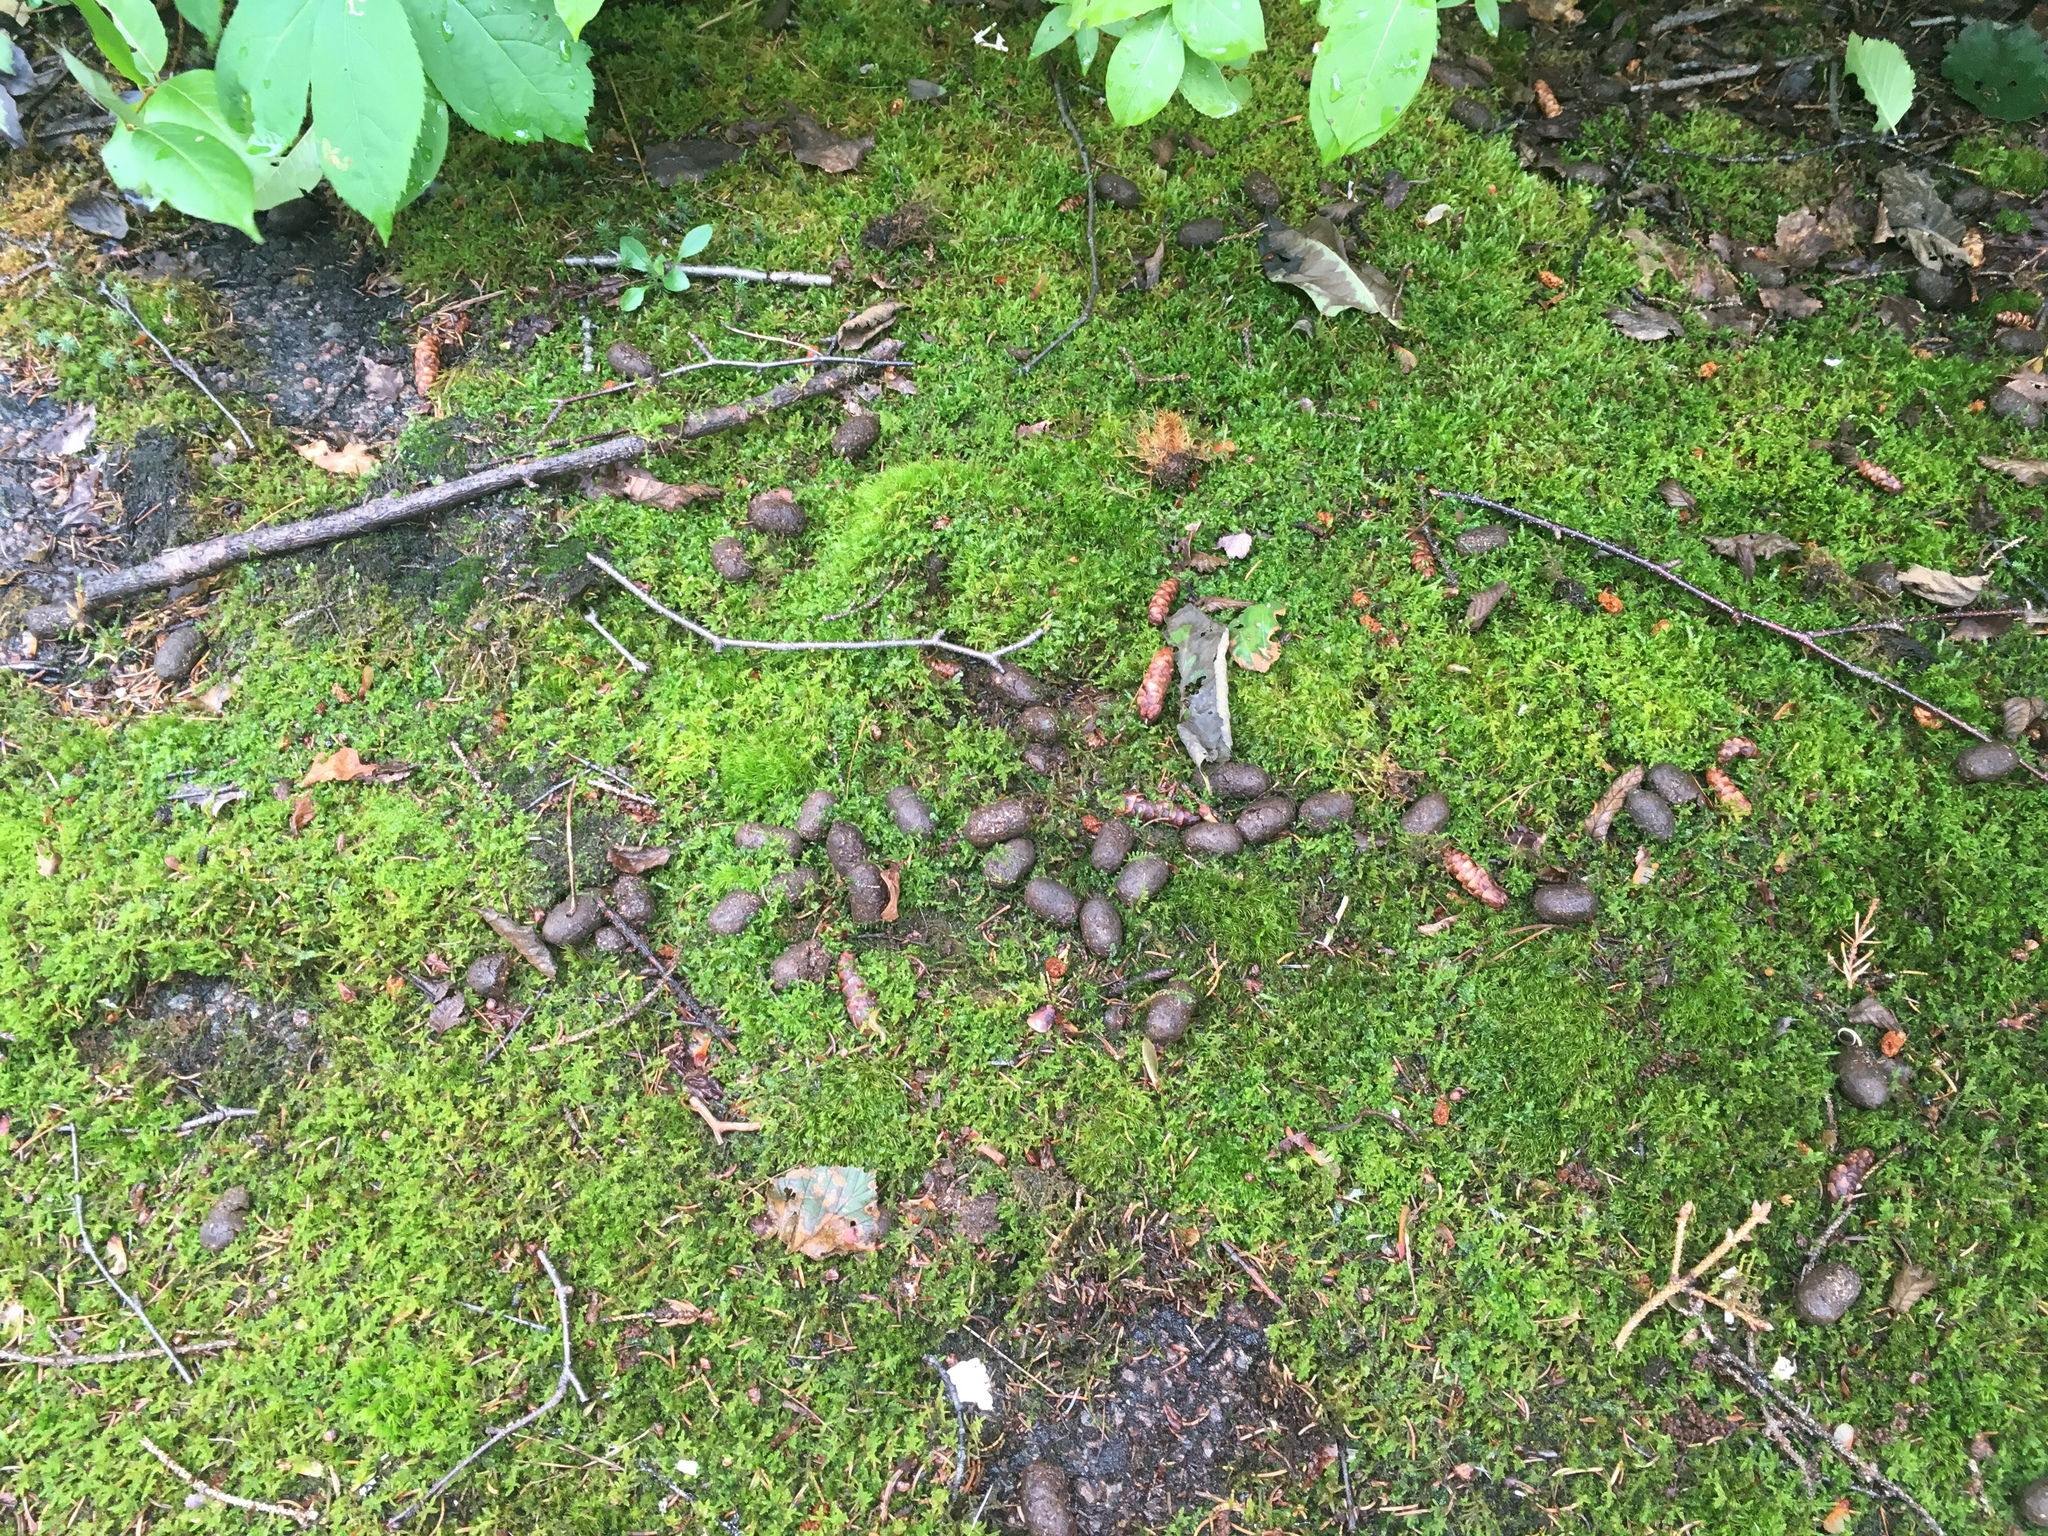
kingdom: Animalia
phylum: Chordata
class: Mammalia
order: Artiodactyla
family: Cervidae
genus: Alces
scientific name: Alces alces
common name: Moose
